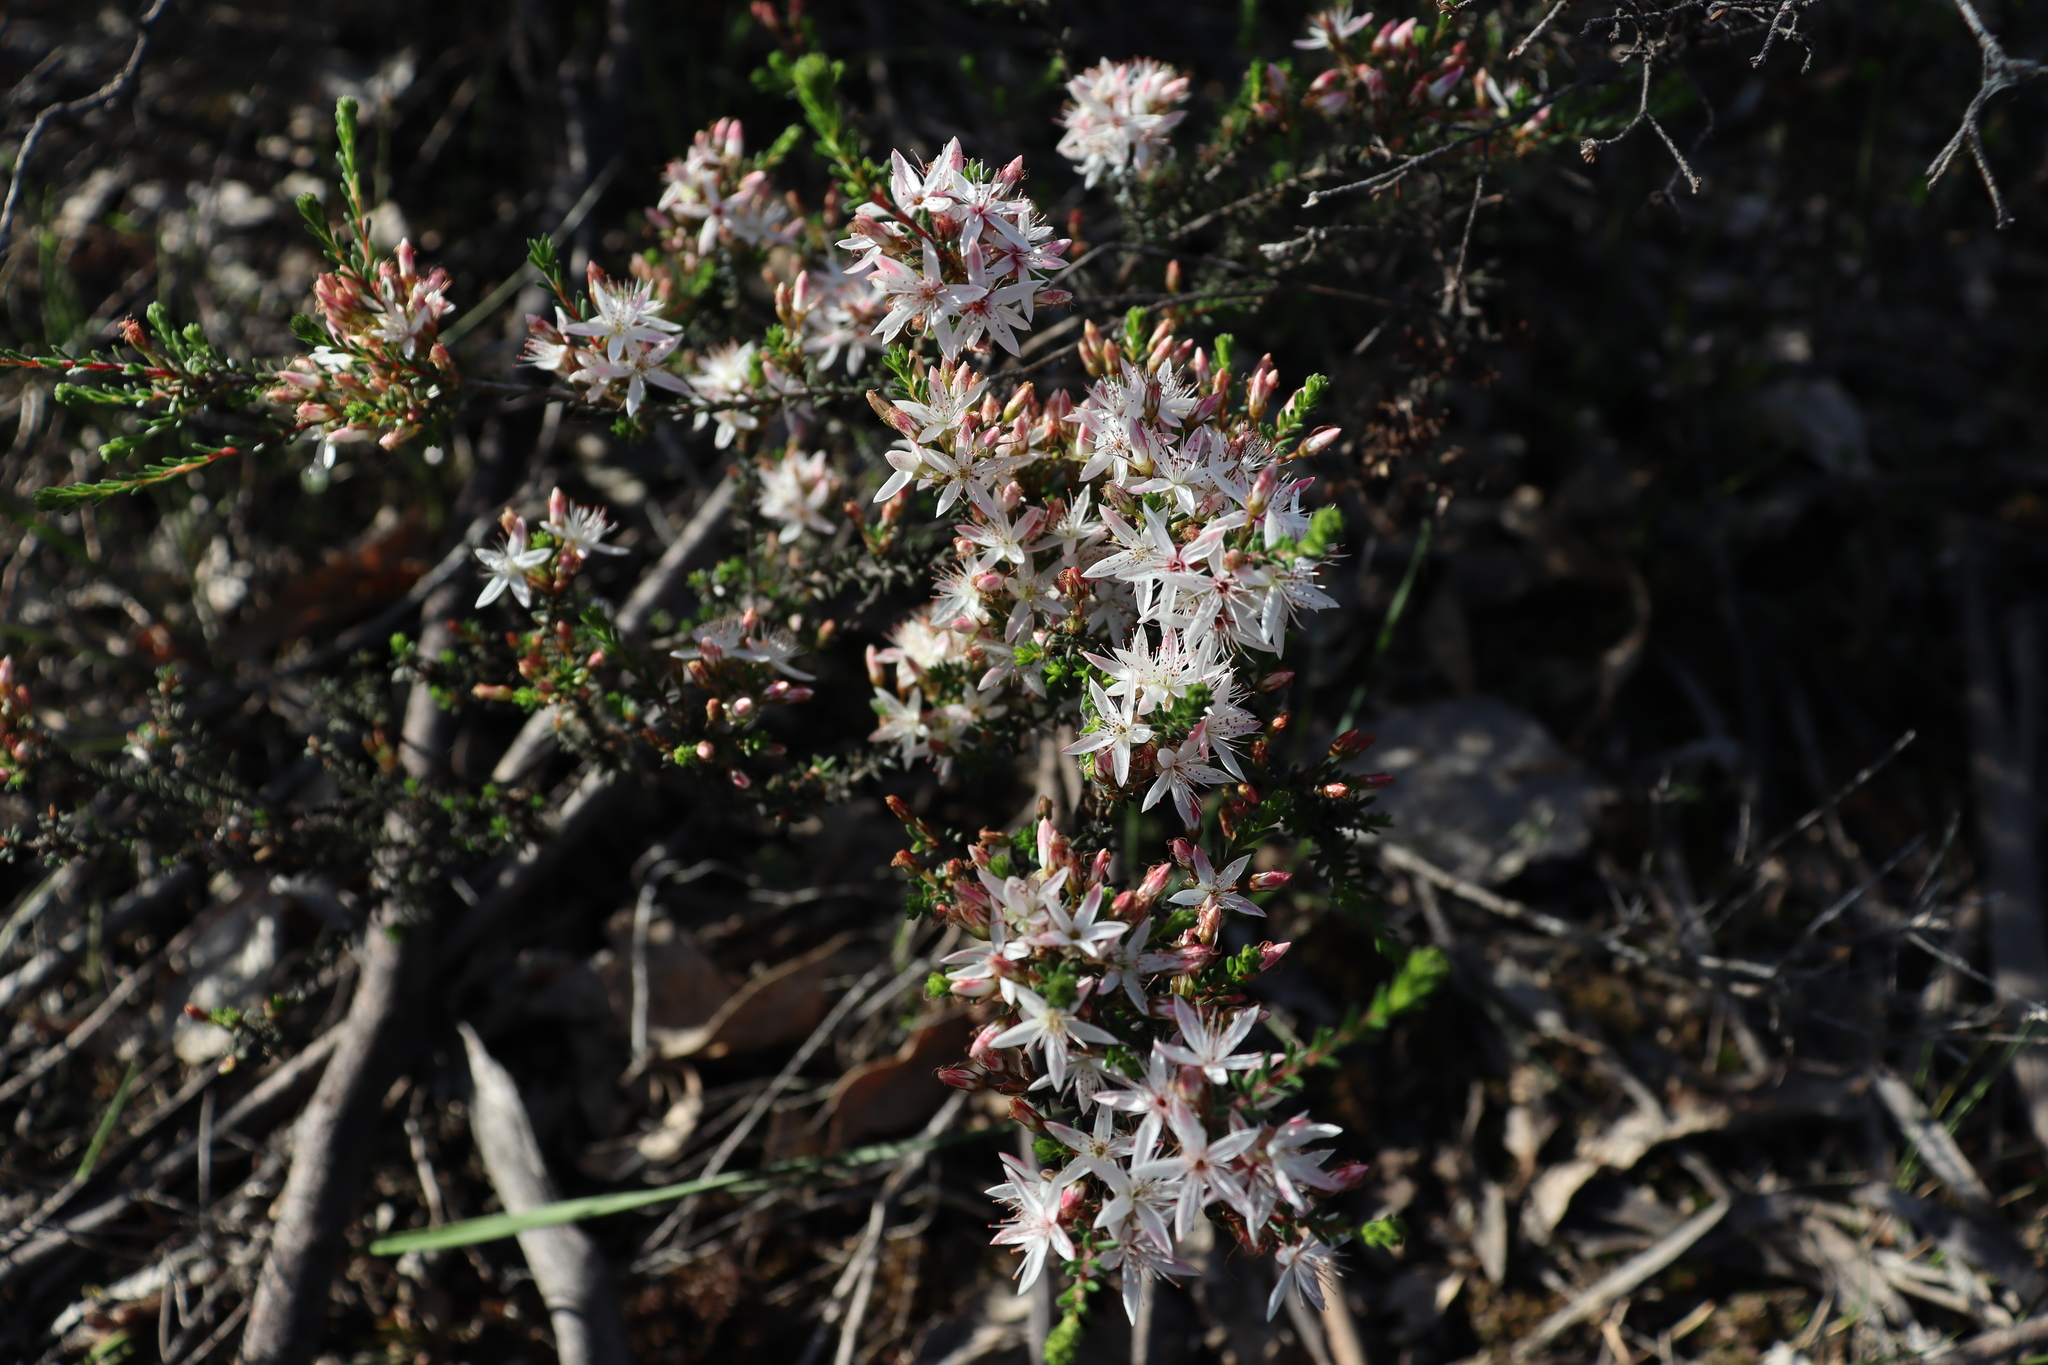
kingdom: Plantae
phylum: Tracheophyta
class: Magnoliopsida
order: Myrtales
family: Myrtaceae
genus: Calytrix
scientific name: Calytrix tetragona
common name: Common fringe myrtle
